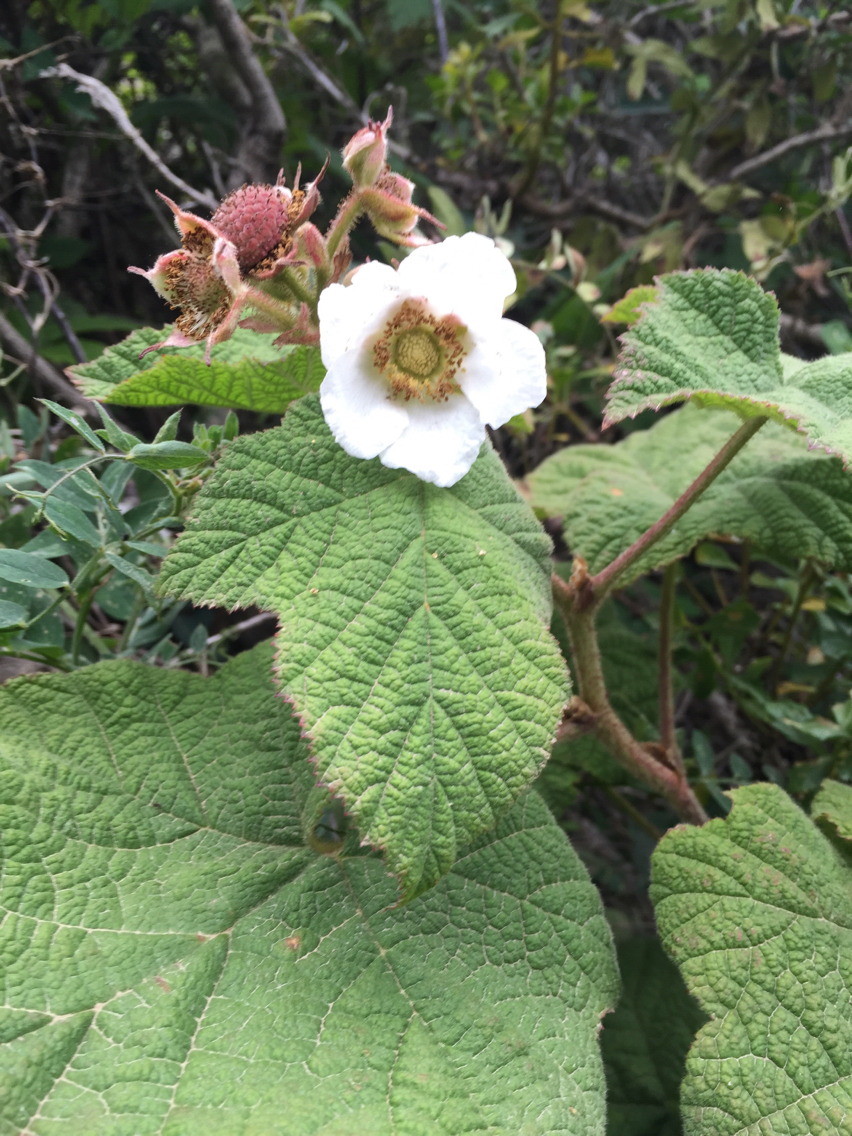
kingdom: Plantae
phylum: Tracheophyta
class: Magnoliopsida
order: Rosales
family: Rosaceae
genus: Rubus
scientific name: Rubus parviflorus
